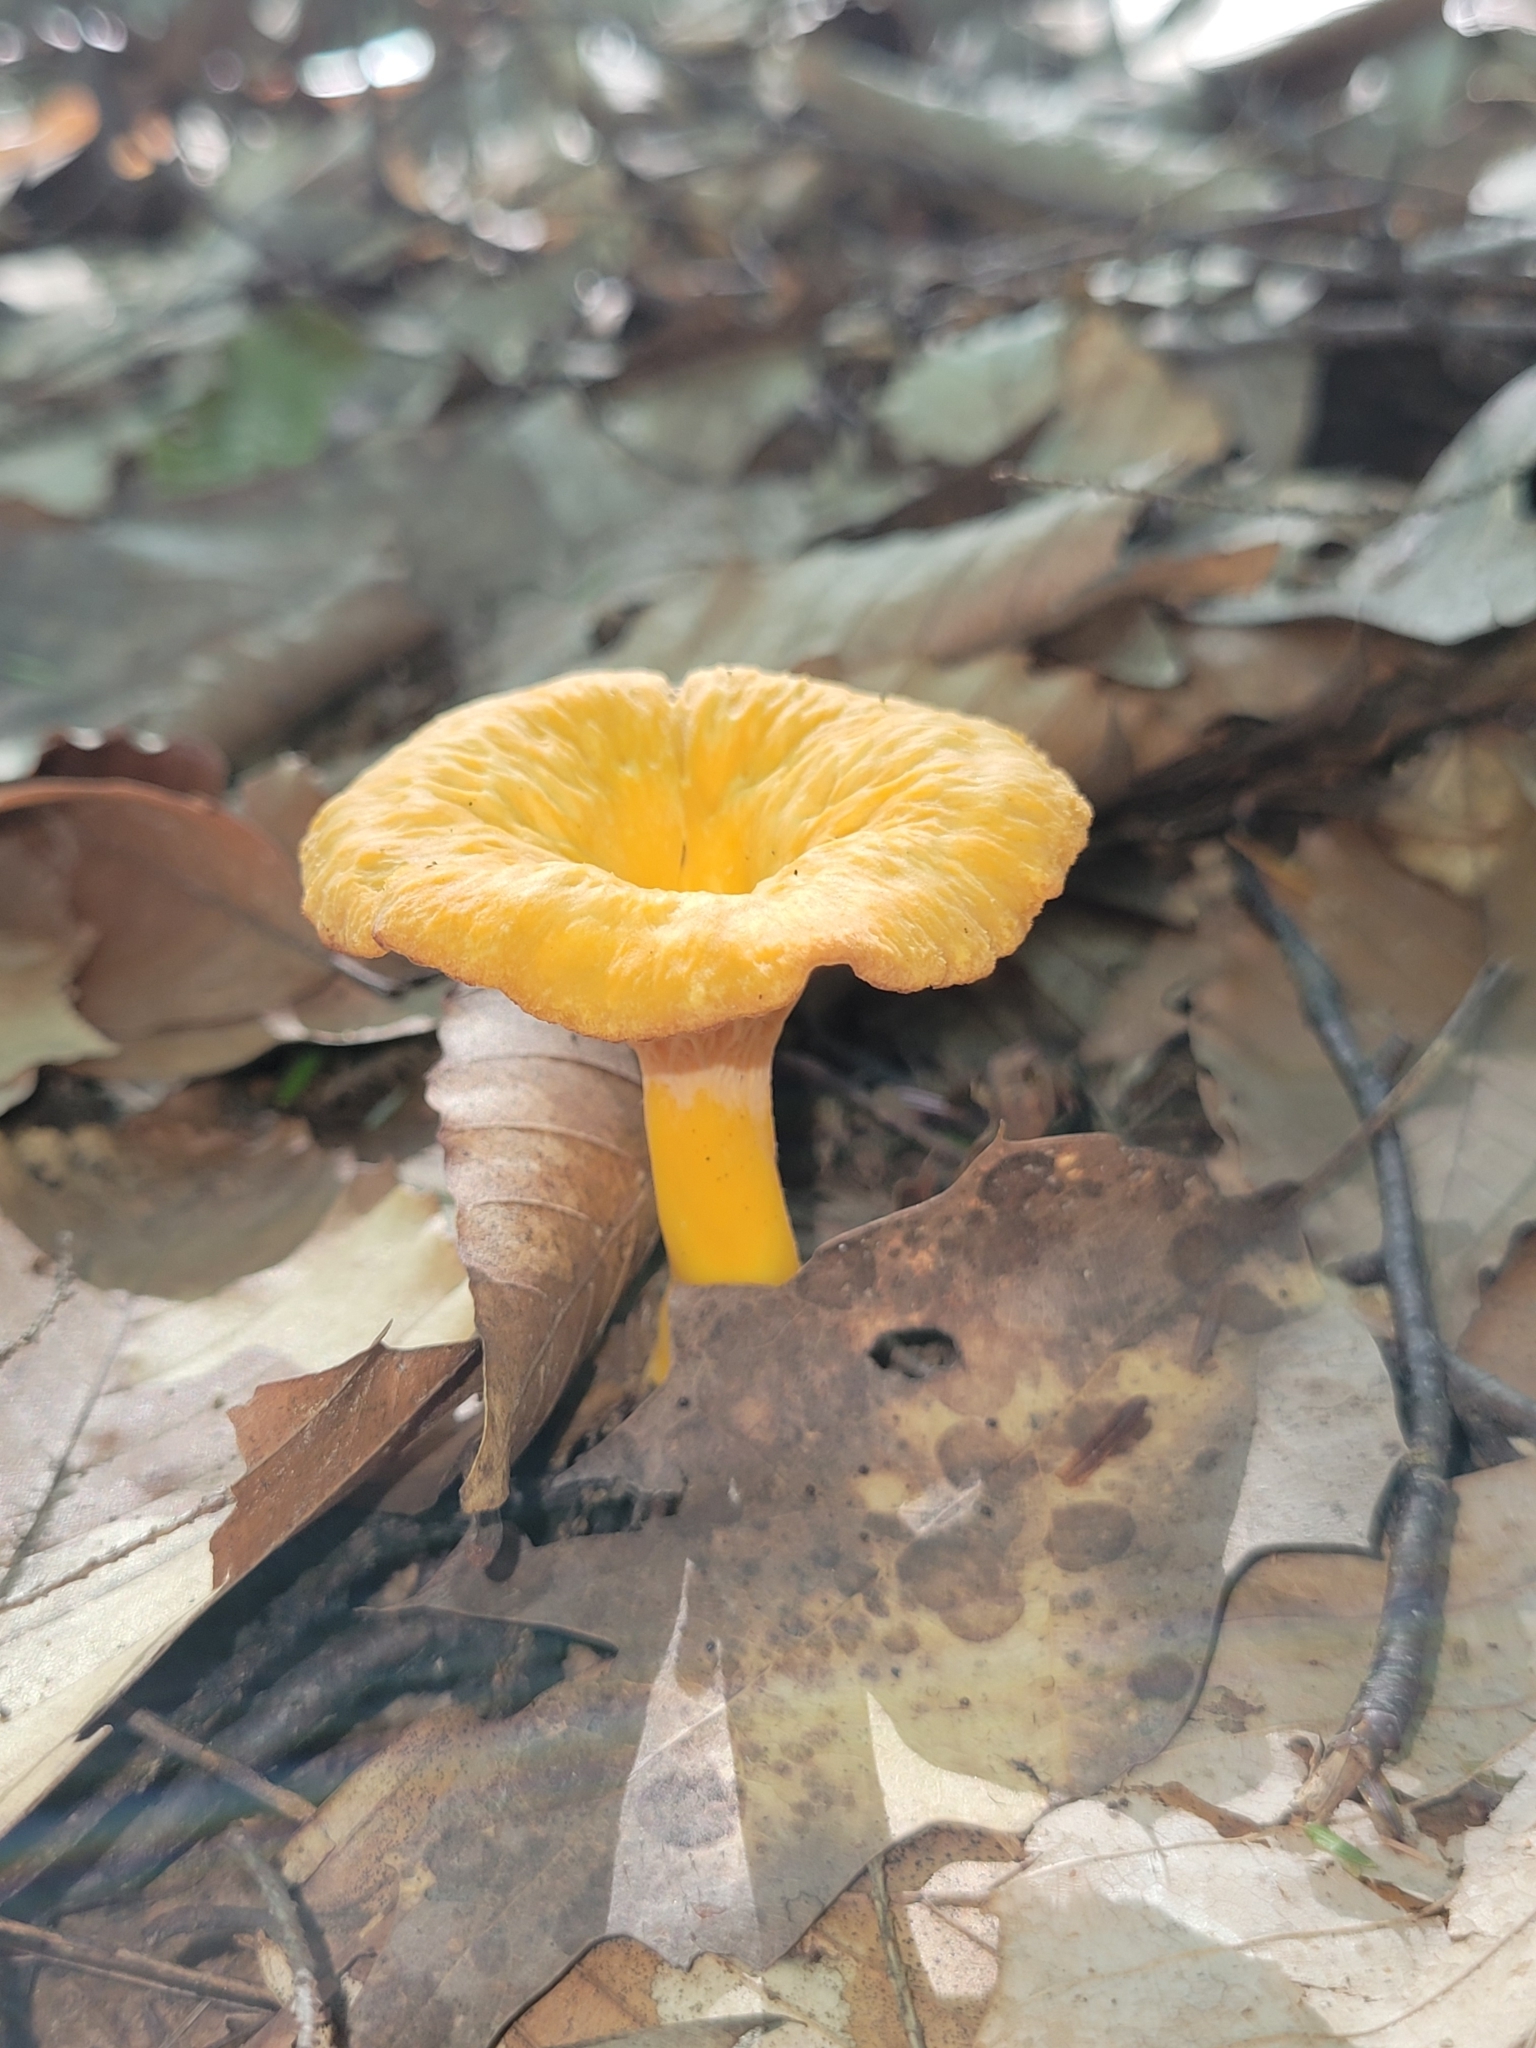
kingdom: Fungi
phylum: Basidiomycota
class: Agaricomycetes
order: Cantharellales
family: Hydnaceae
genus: Craterellus
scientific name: Craterellus ignicolor
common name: Flame chanterelle
